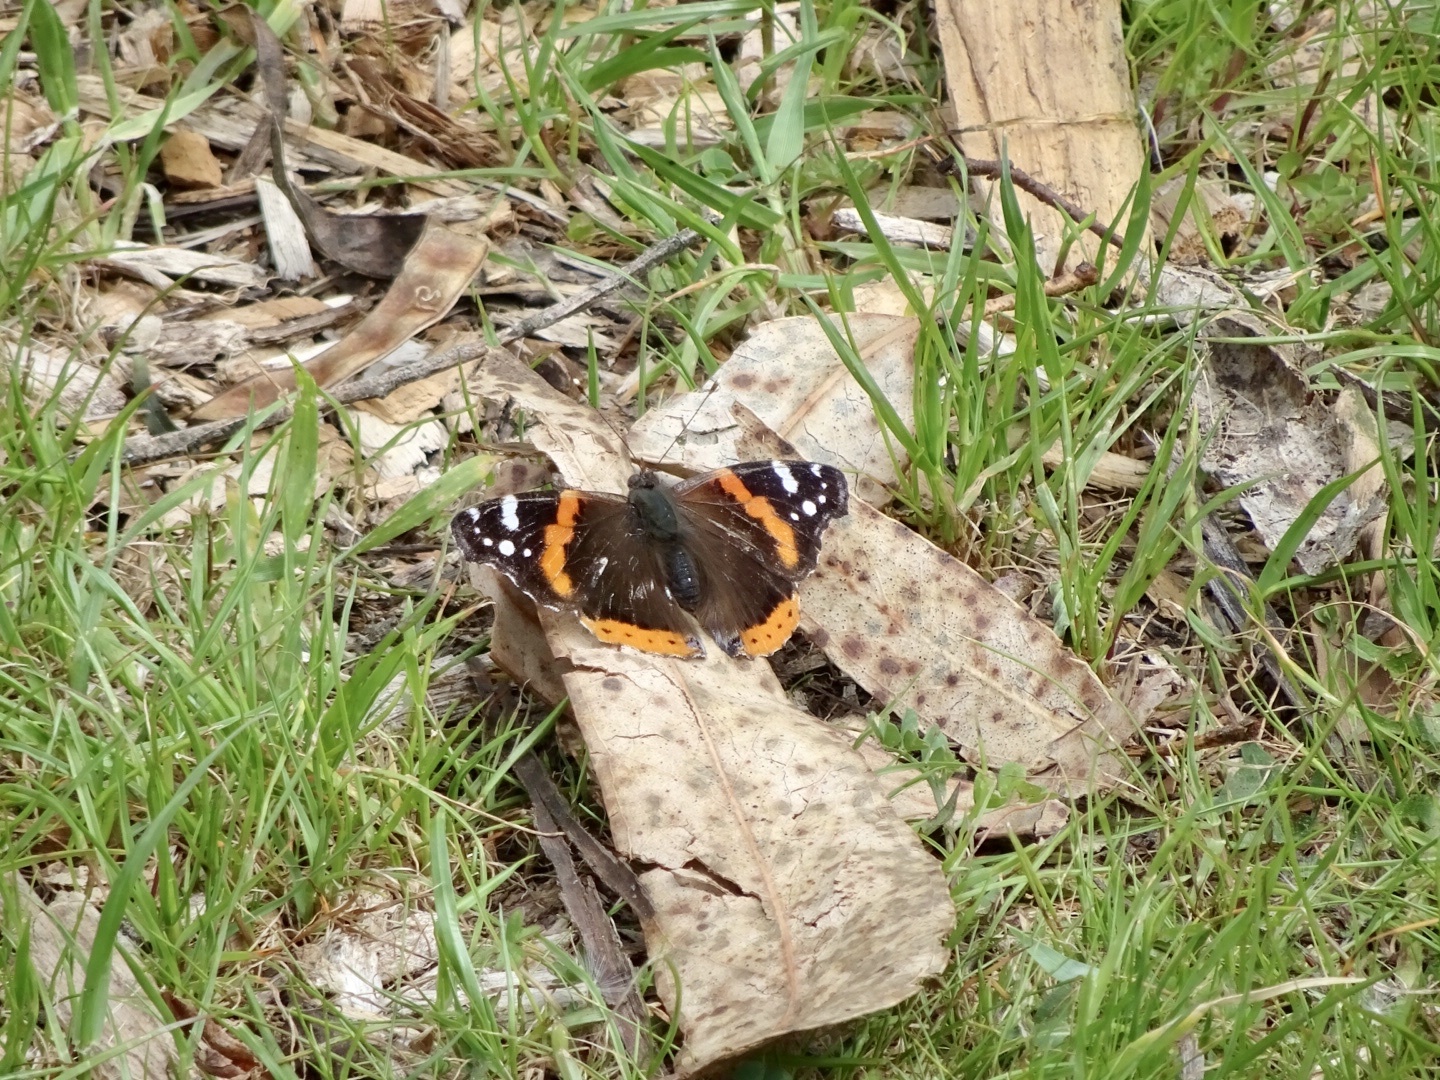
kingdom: Animalia
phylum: Arthropoda
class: Insecta
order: Lepidoptera
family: Nymphalidae
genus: Vanessa
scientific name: Vanessa atalanta
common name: Red admiral
